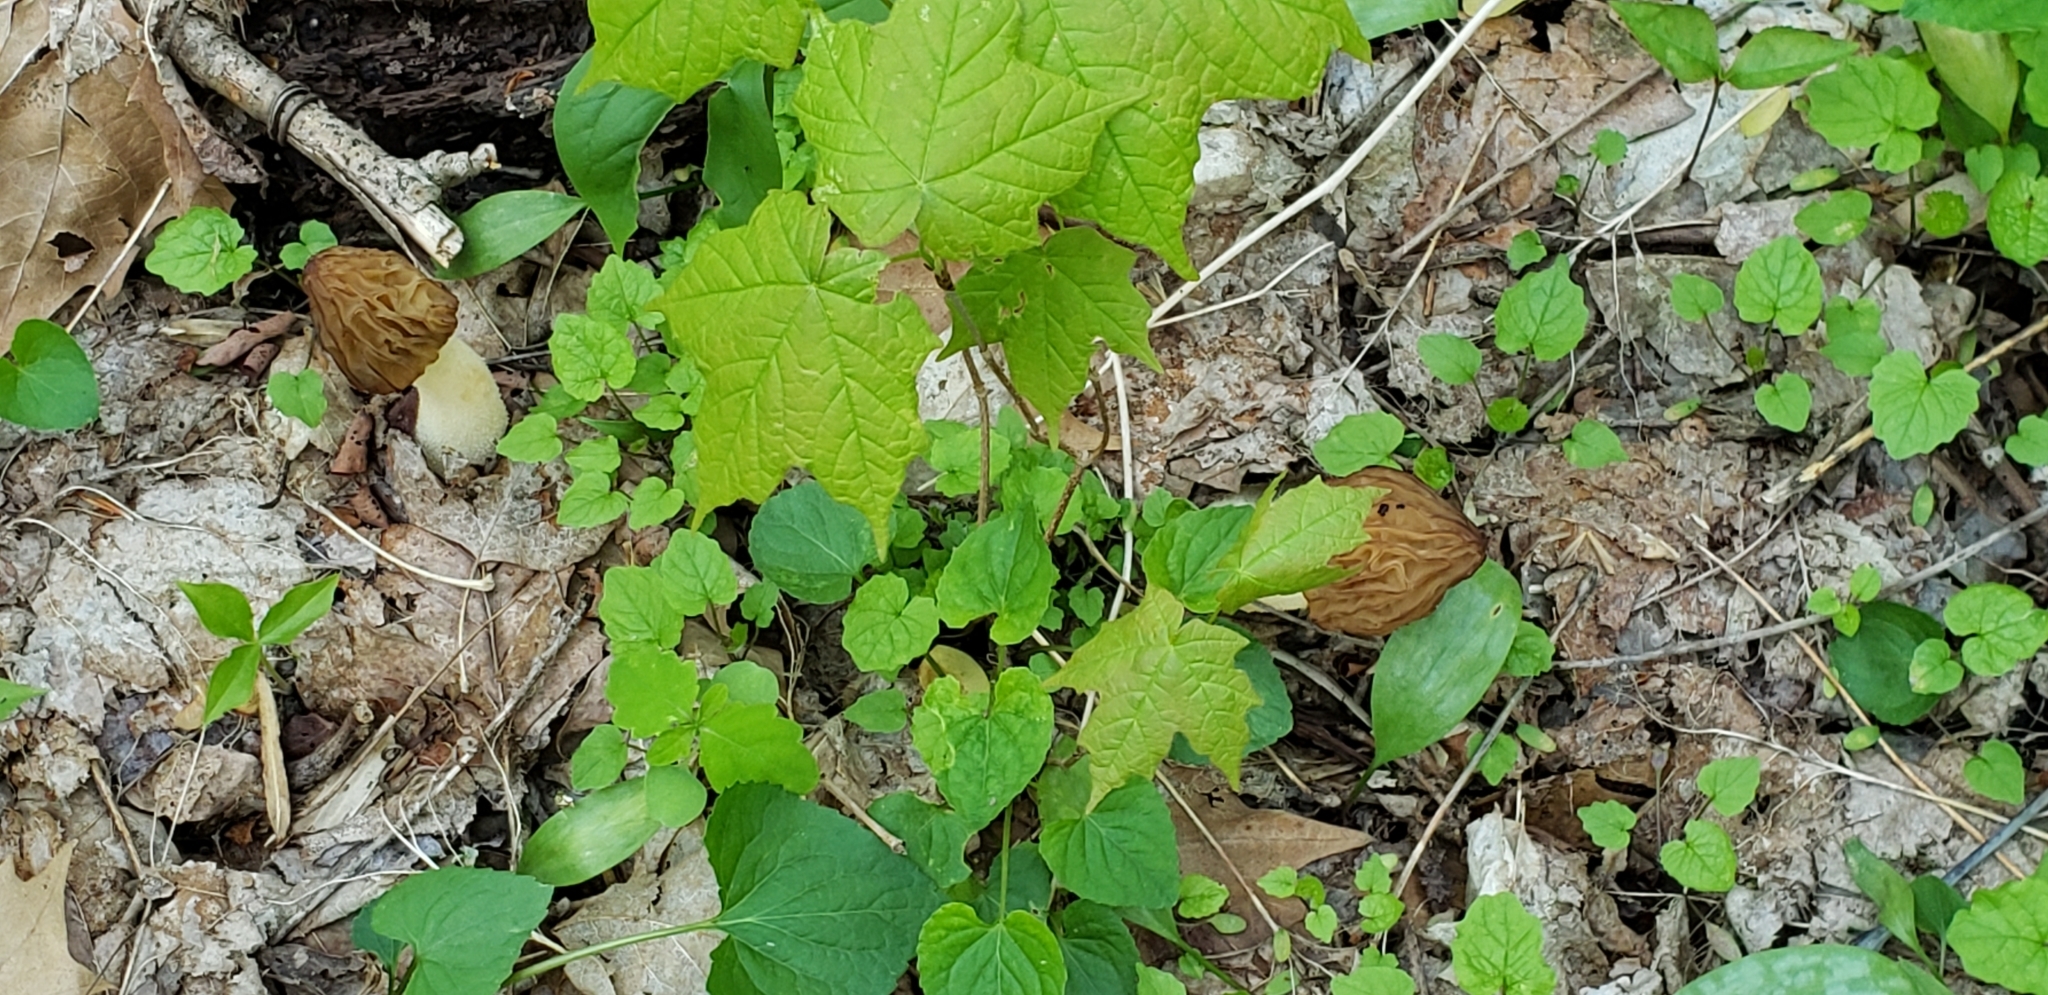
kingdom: Fungi
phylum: Ascomycota
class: Pezizomycetes
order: Pezizales
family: Morchellaceae
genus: Morchella
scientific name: Morchella punctipes
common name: Half-free morel
